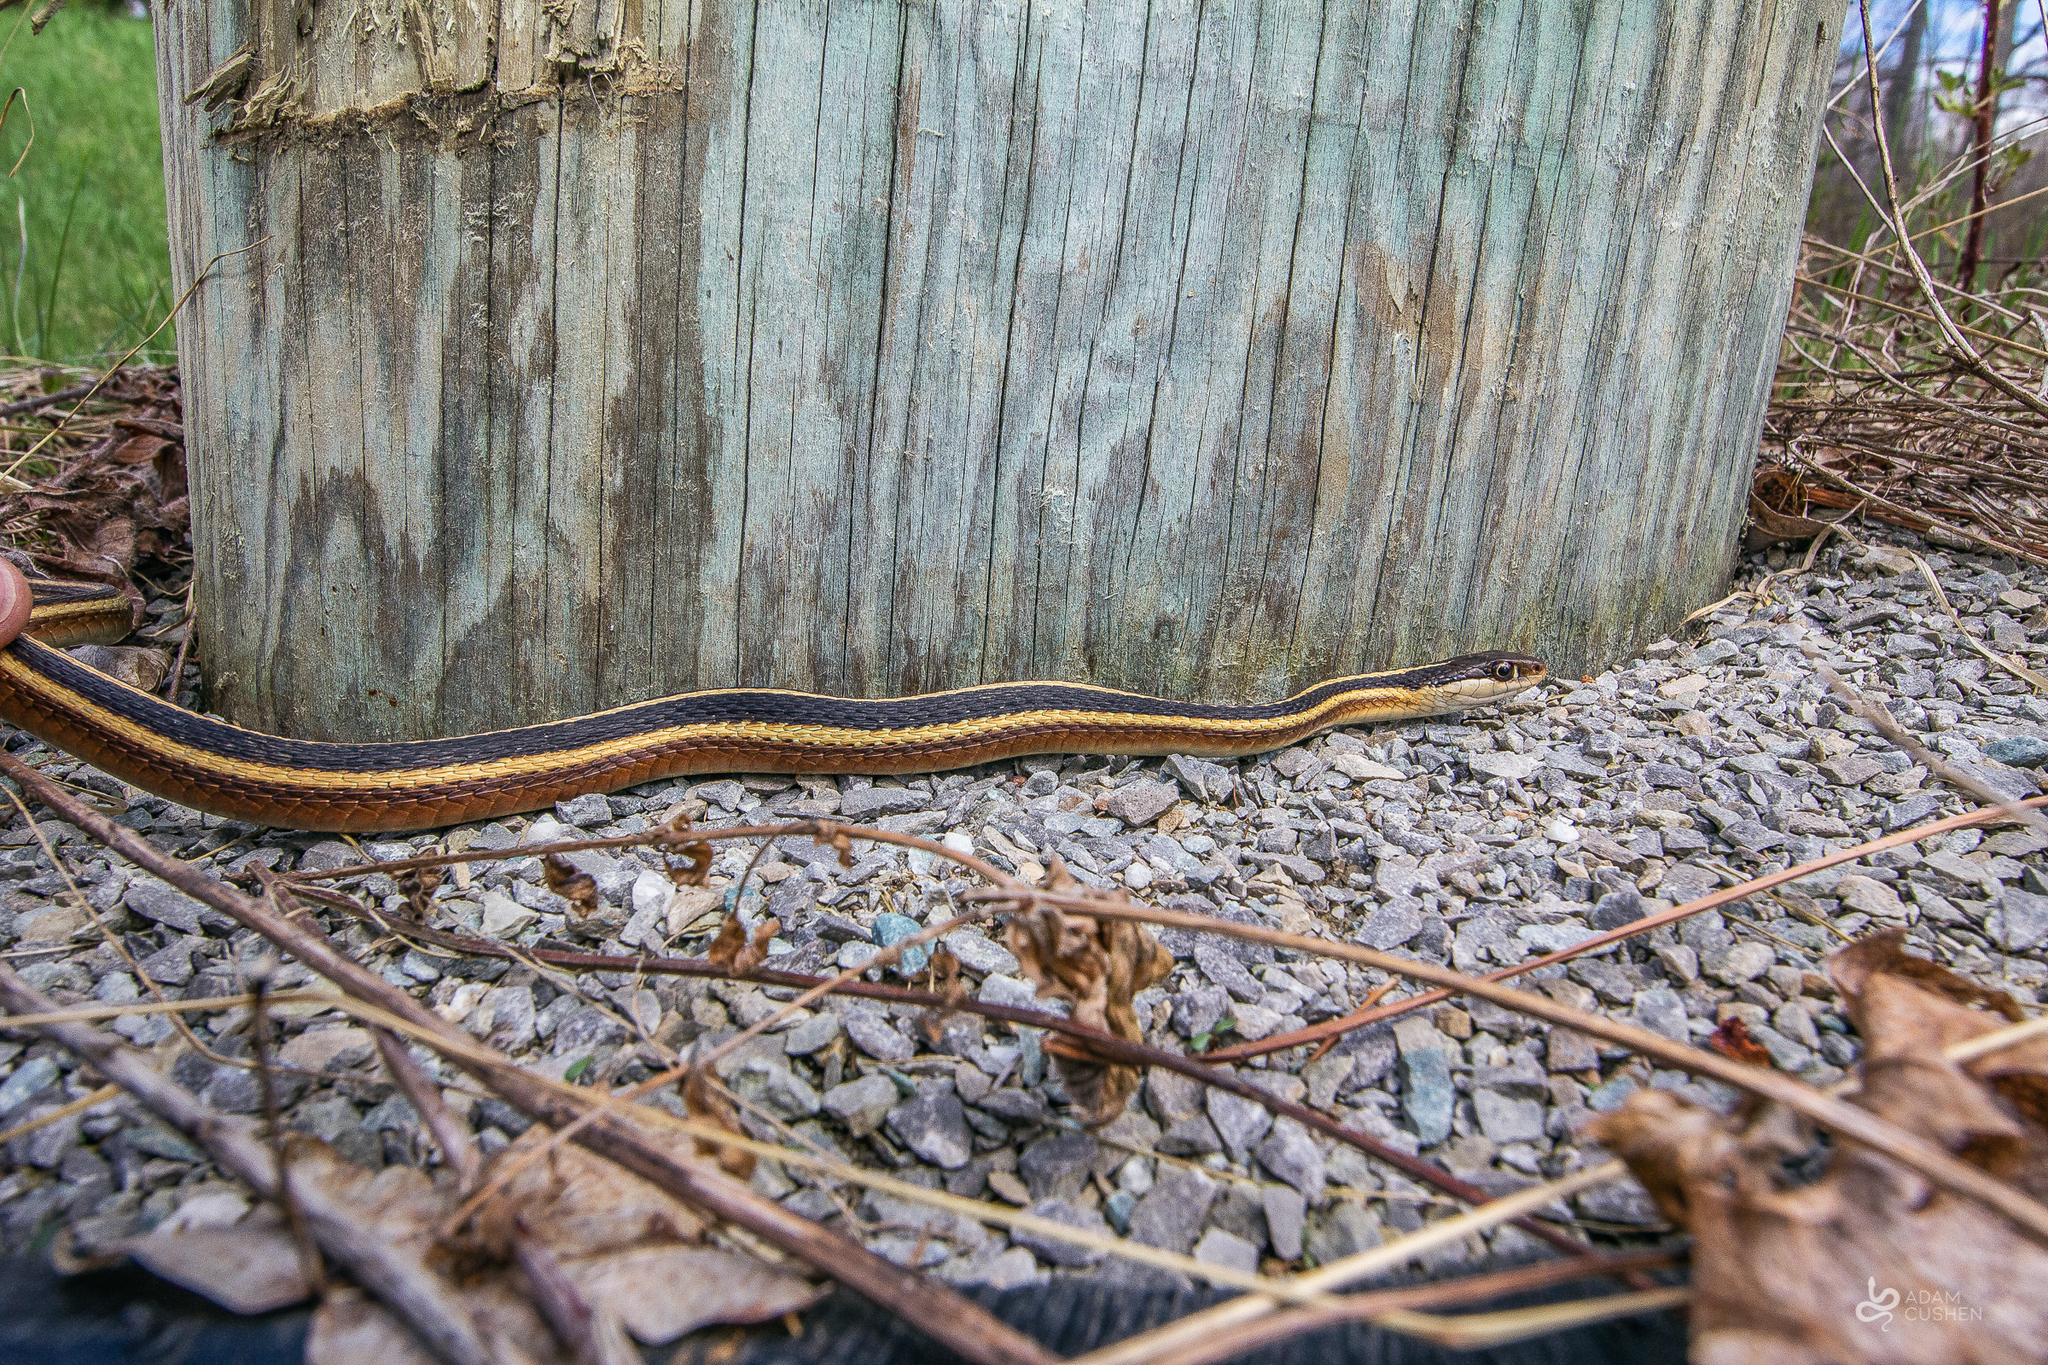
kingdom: Animalia
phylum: Chordata
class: Squamata
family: Colubridae
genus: Thamnophis
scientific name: Thamnophis saurita
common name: Eastern ribbonsnake
